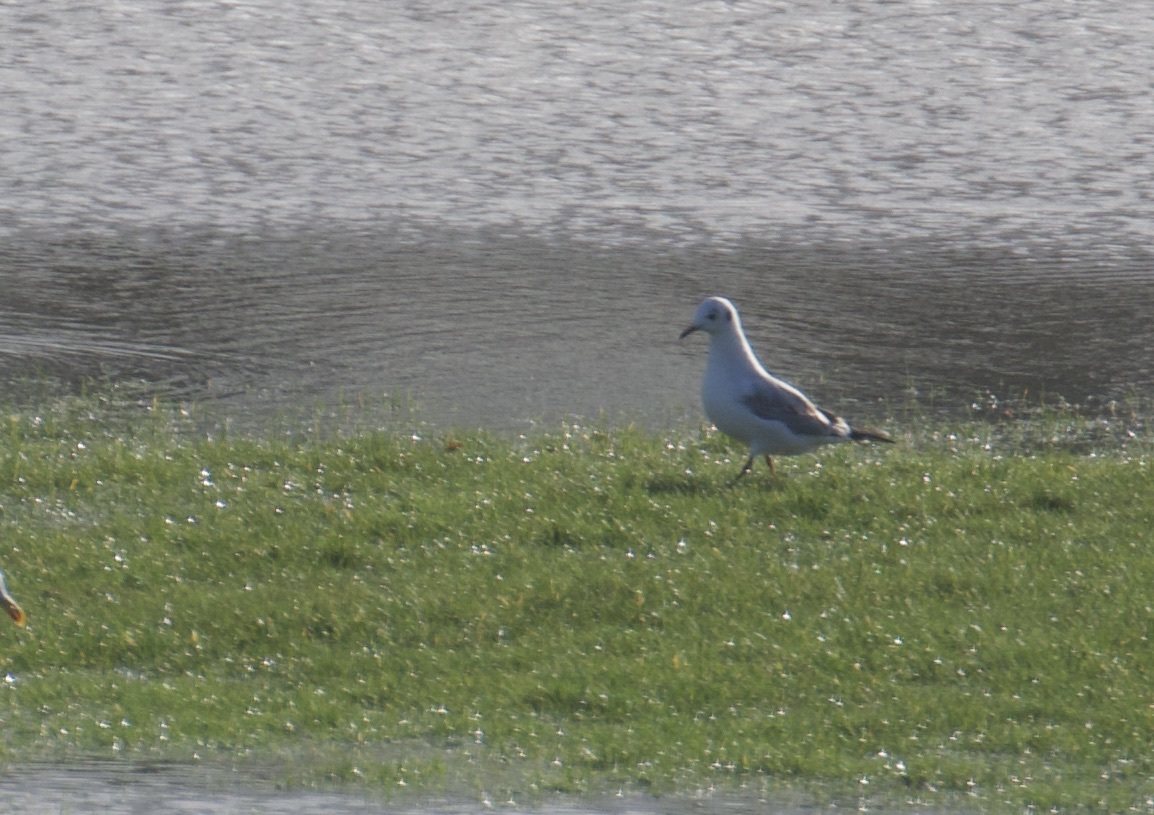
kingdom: Animalia
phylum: Chordata
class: Aves
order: Charadriiformes
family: Laridae
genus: Chroicocephalus
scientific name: Chroicocephalus ridibundus
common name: Black-headed gull
